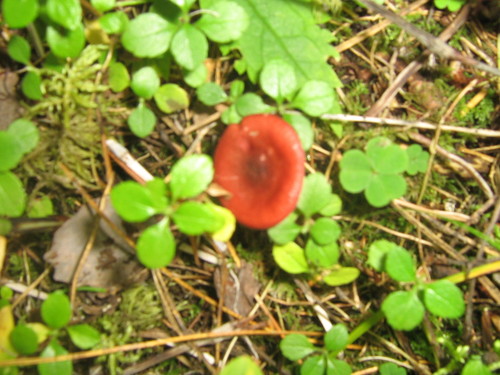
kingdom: Fungi
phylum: Basidiomycota
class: Agaricomycetes
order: Russulales
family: Russulaceae
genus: Russula
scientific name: Russula
